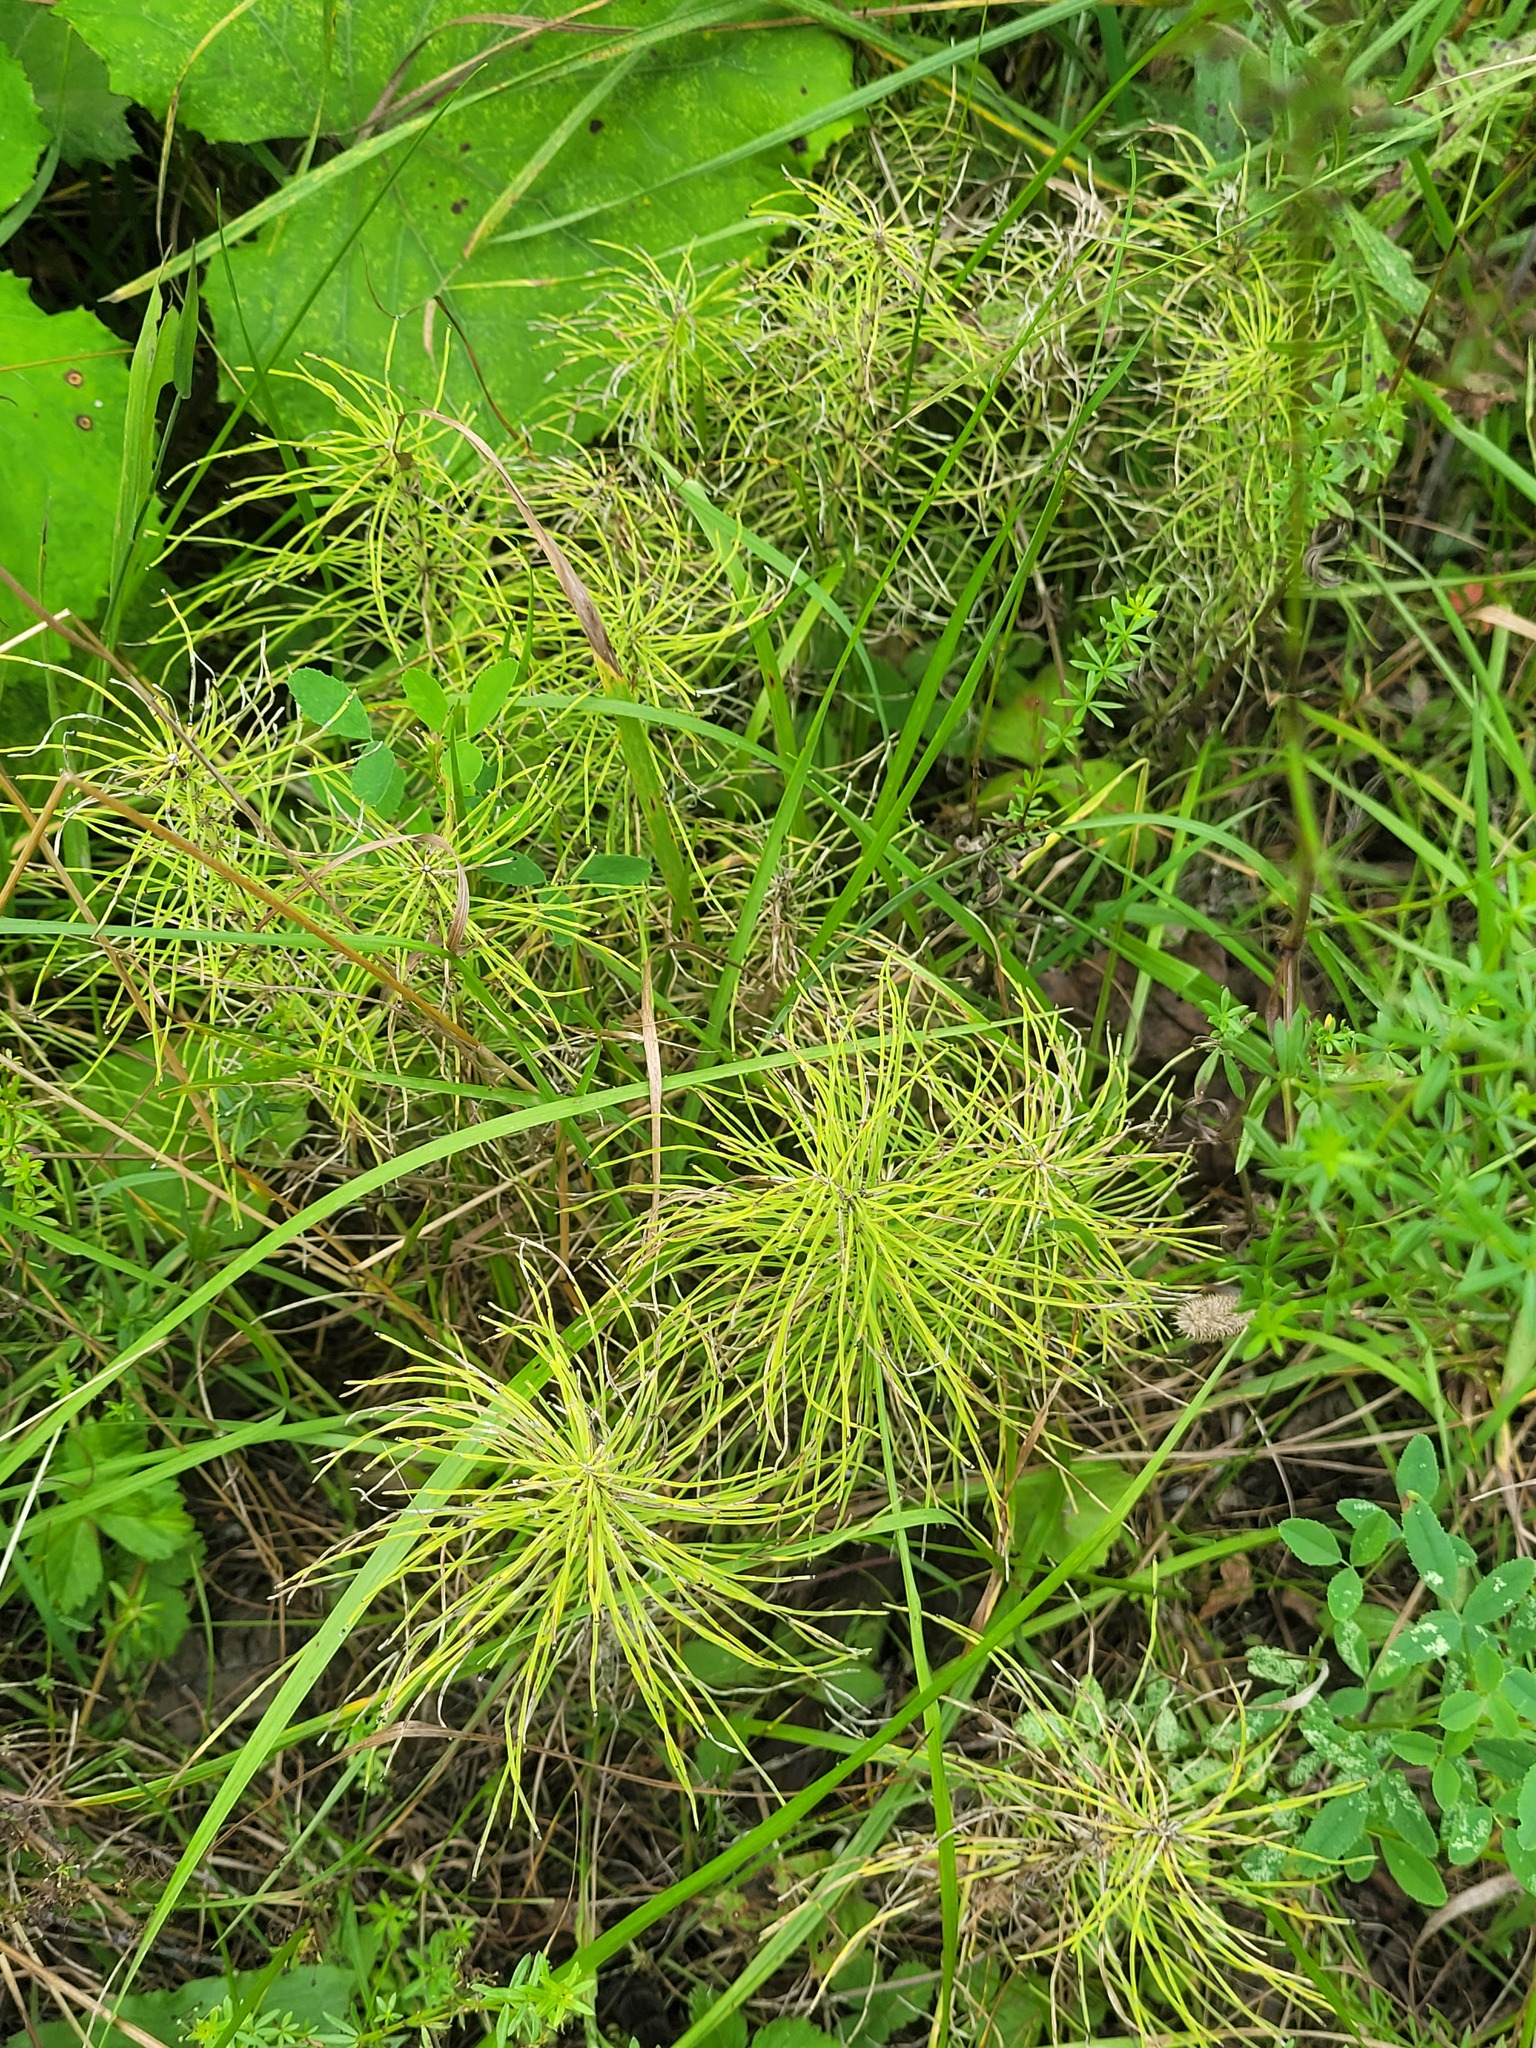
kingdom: Plantae
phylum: Tracheophyta
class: Polypodiopsida
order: Equisetales
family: Equisetaceae
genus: Equisetum
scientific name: Equisetum arvense
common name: Field horsetail
